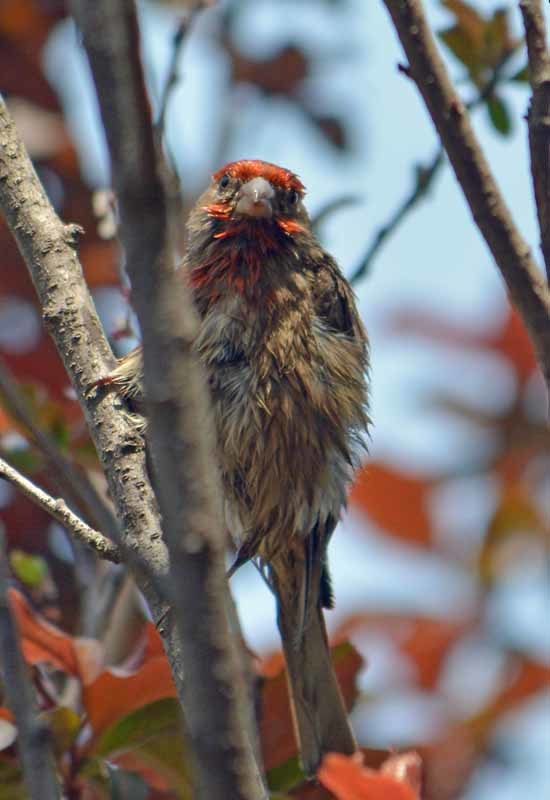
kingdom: Animalia
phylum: Chordata
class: Aves
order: Passeriformes
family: Fringillidae
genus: Haemorhous
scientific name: Haemorhous mexicanus
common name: House finch
